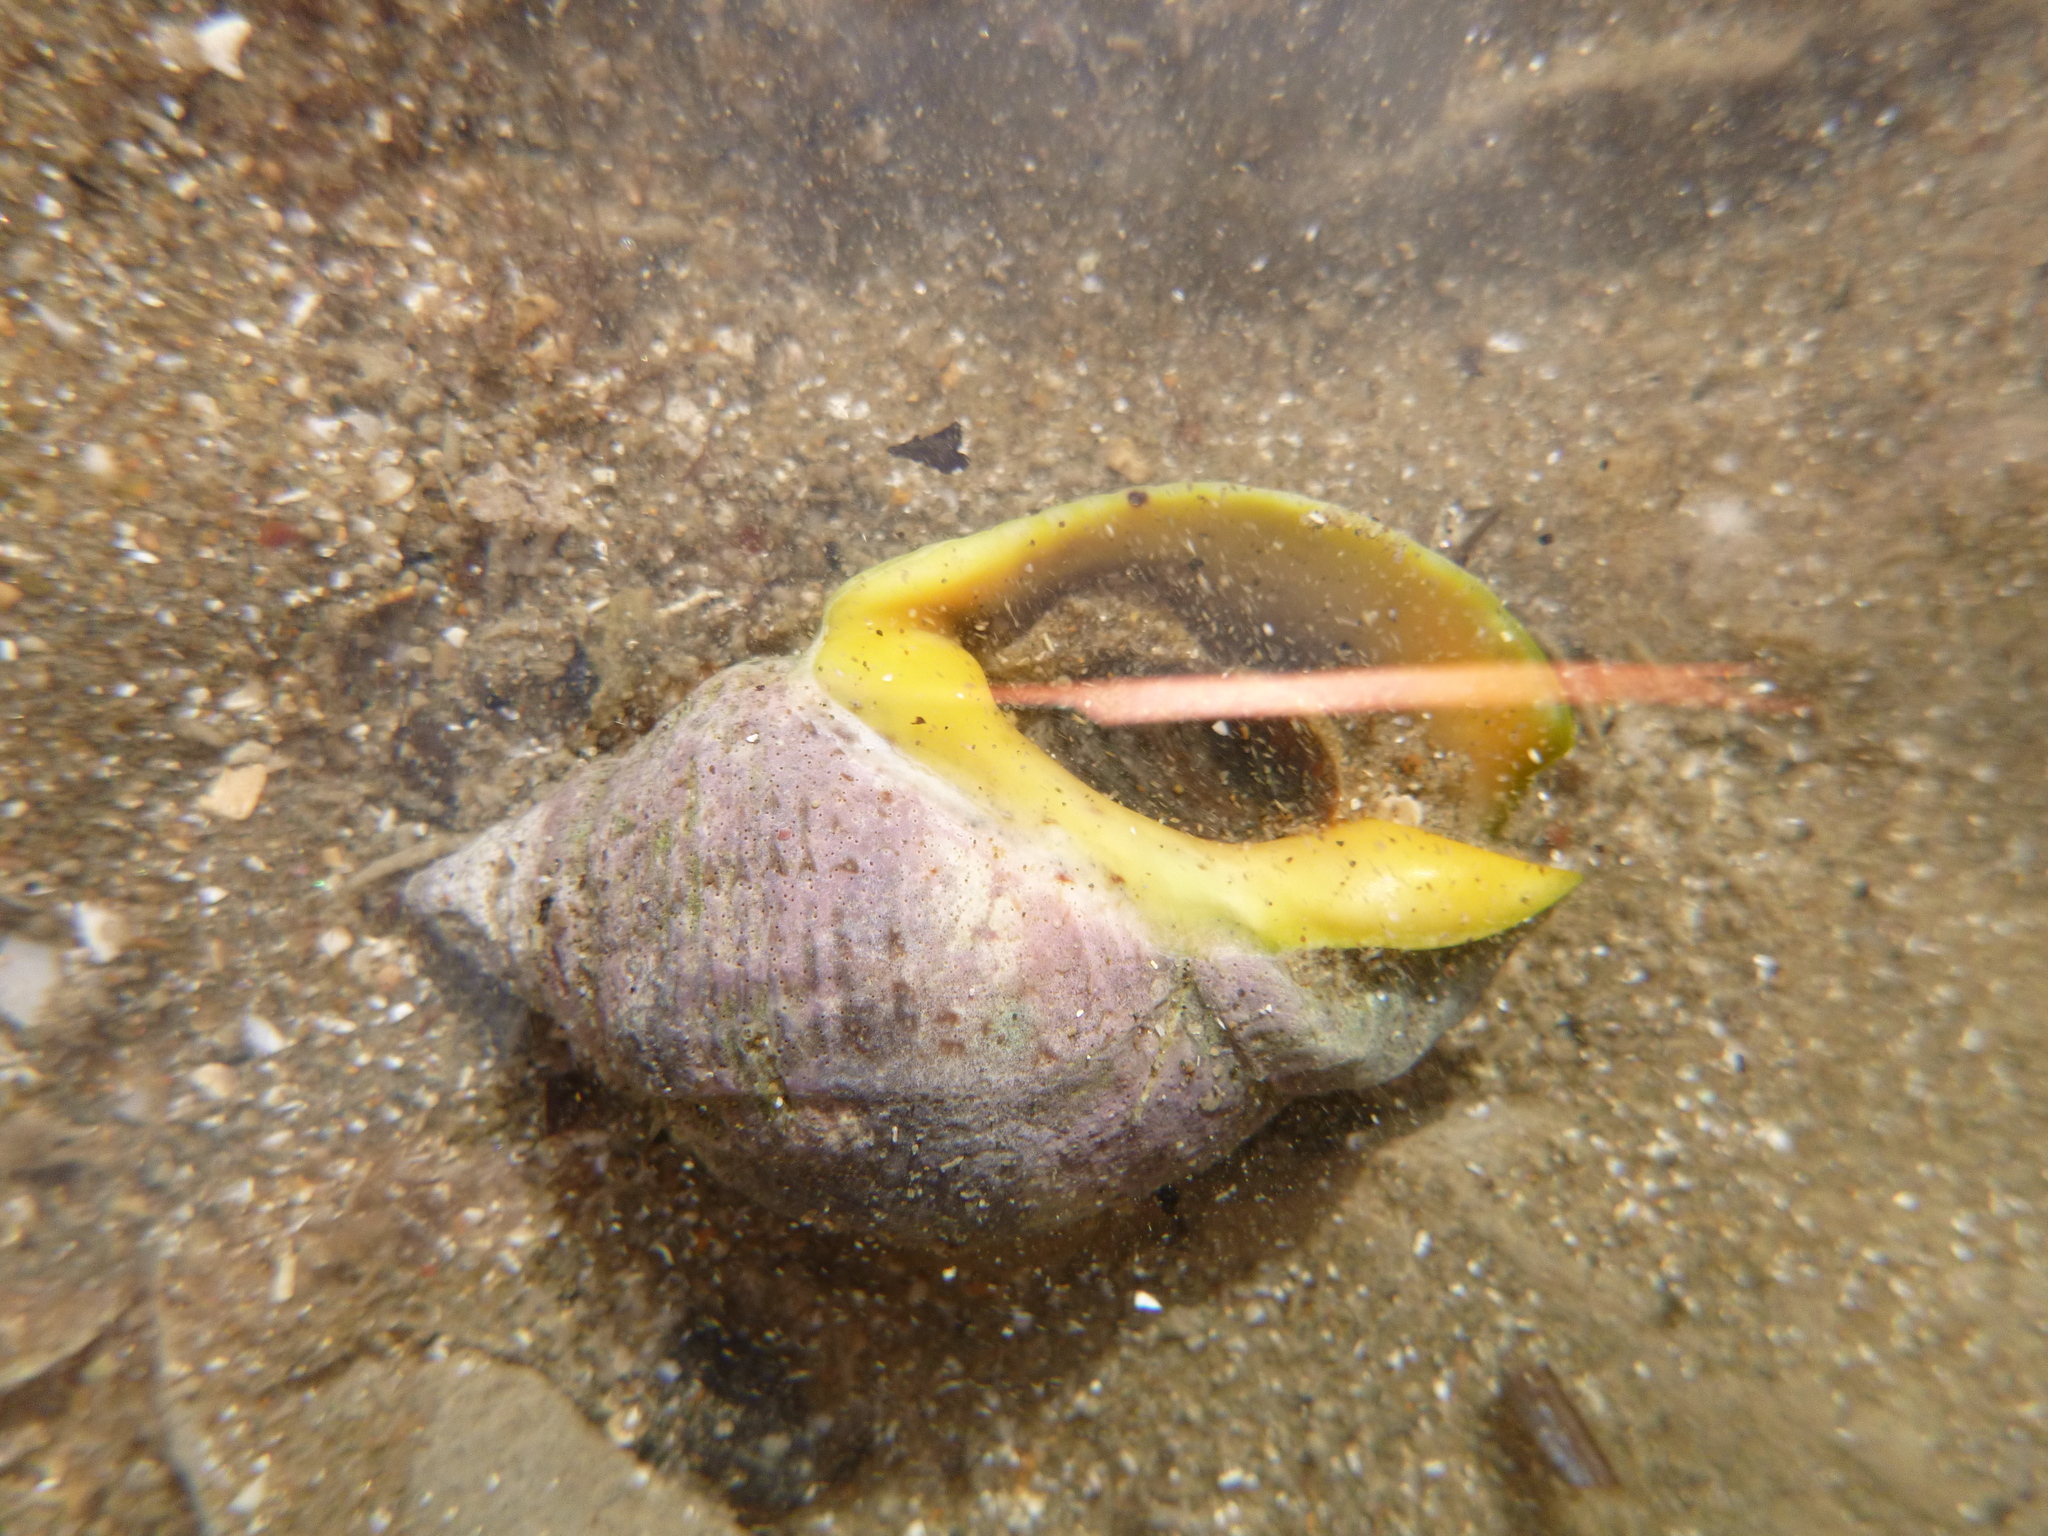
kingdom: Animalia
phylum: Mollusca
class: Gastropoda
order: Neogastropoda
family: Cominellidae
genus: Cominella
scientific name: Cominella adspersa
